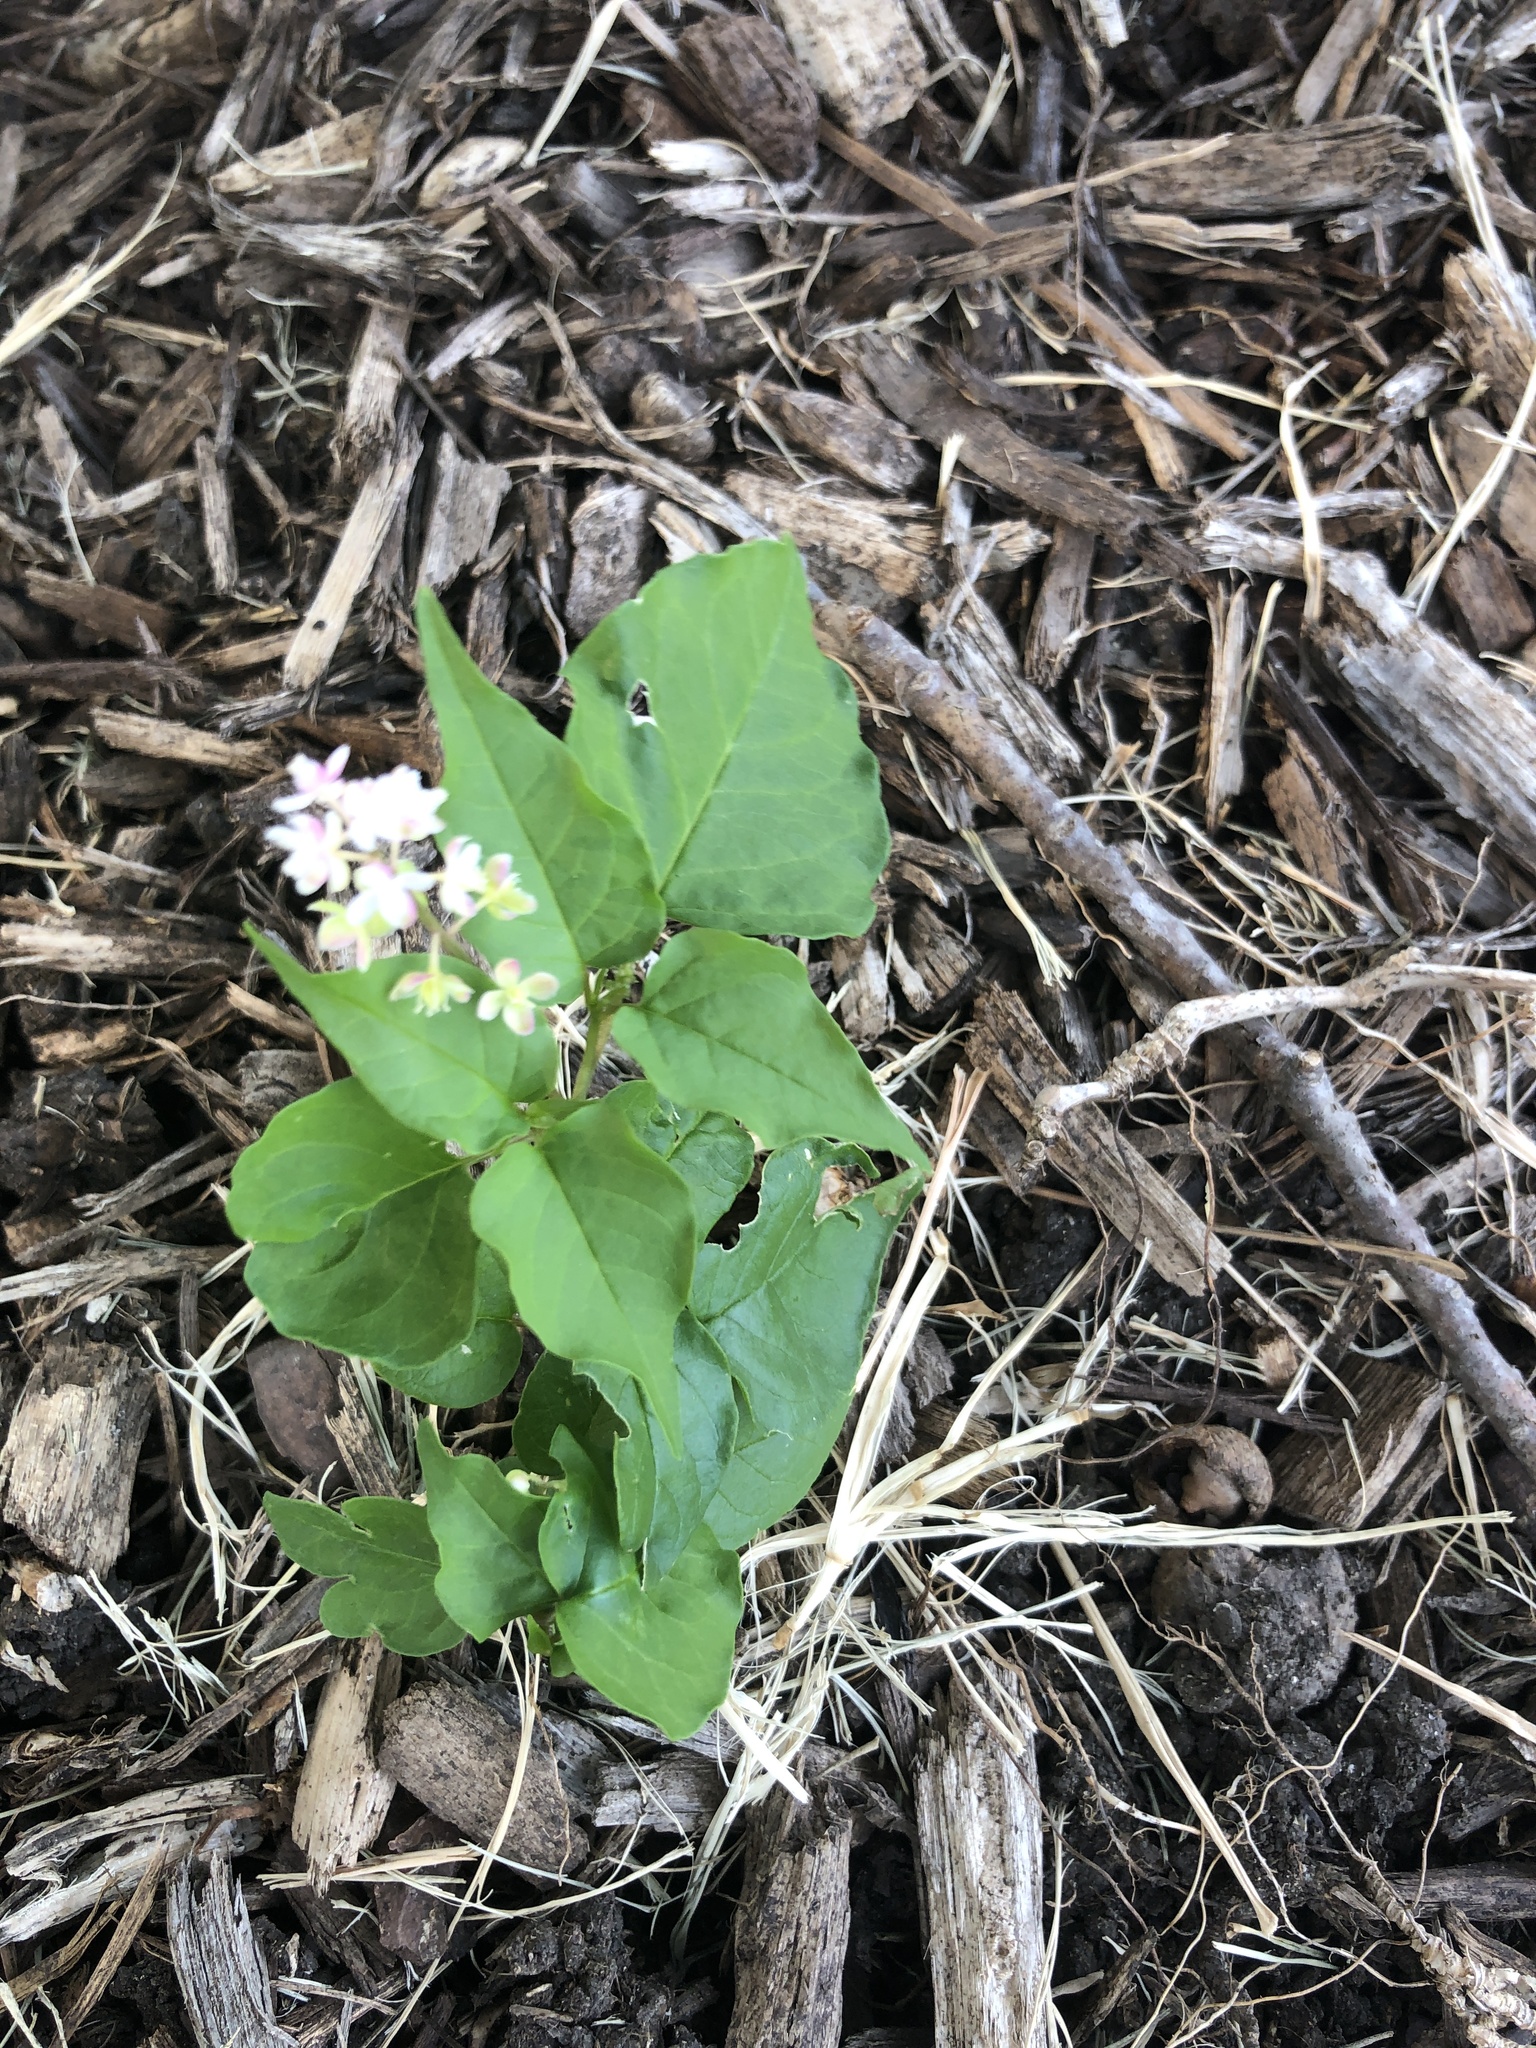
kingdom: Plantae
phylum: Tracheophyta
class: Magnoliopsida
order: Caryophyllales
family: Phytolaccaceae
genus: Rivina
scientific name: Rivina humilis
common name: Rougeplant
